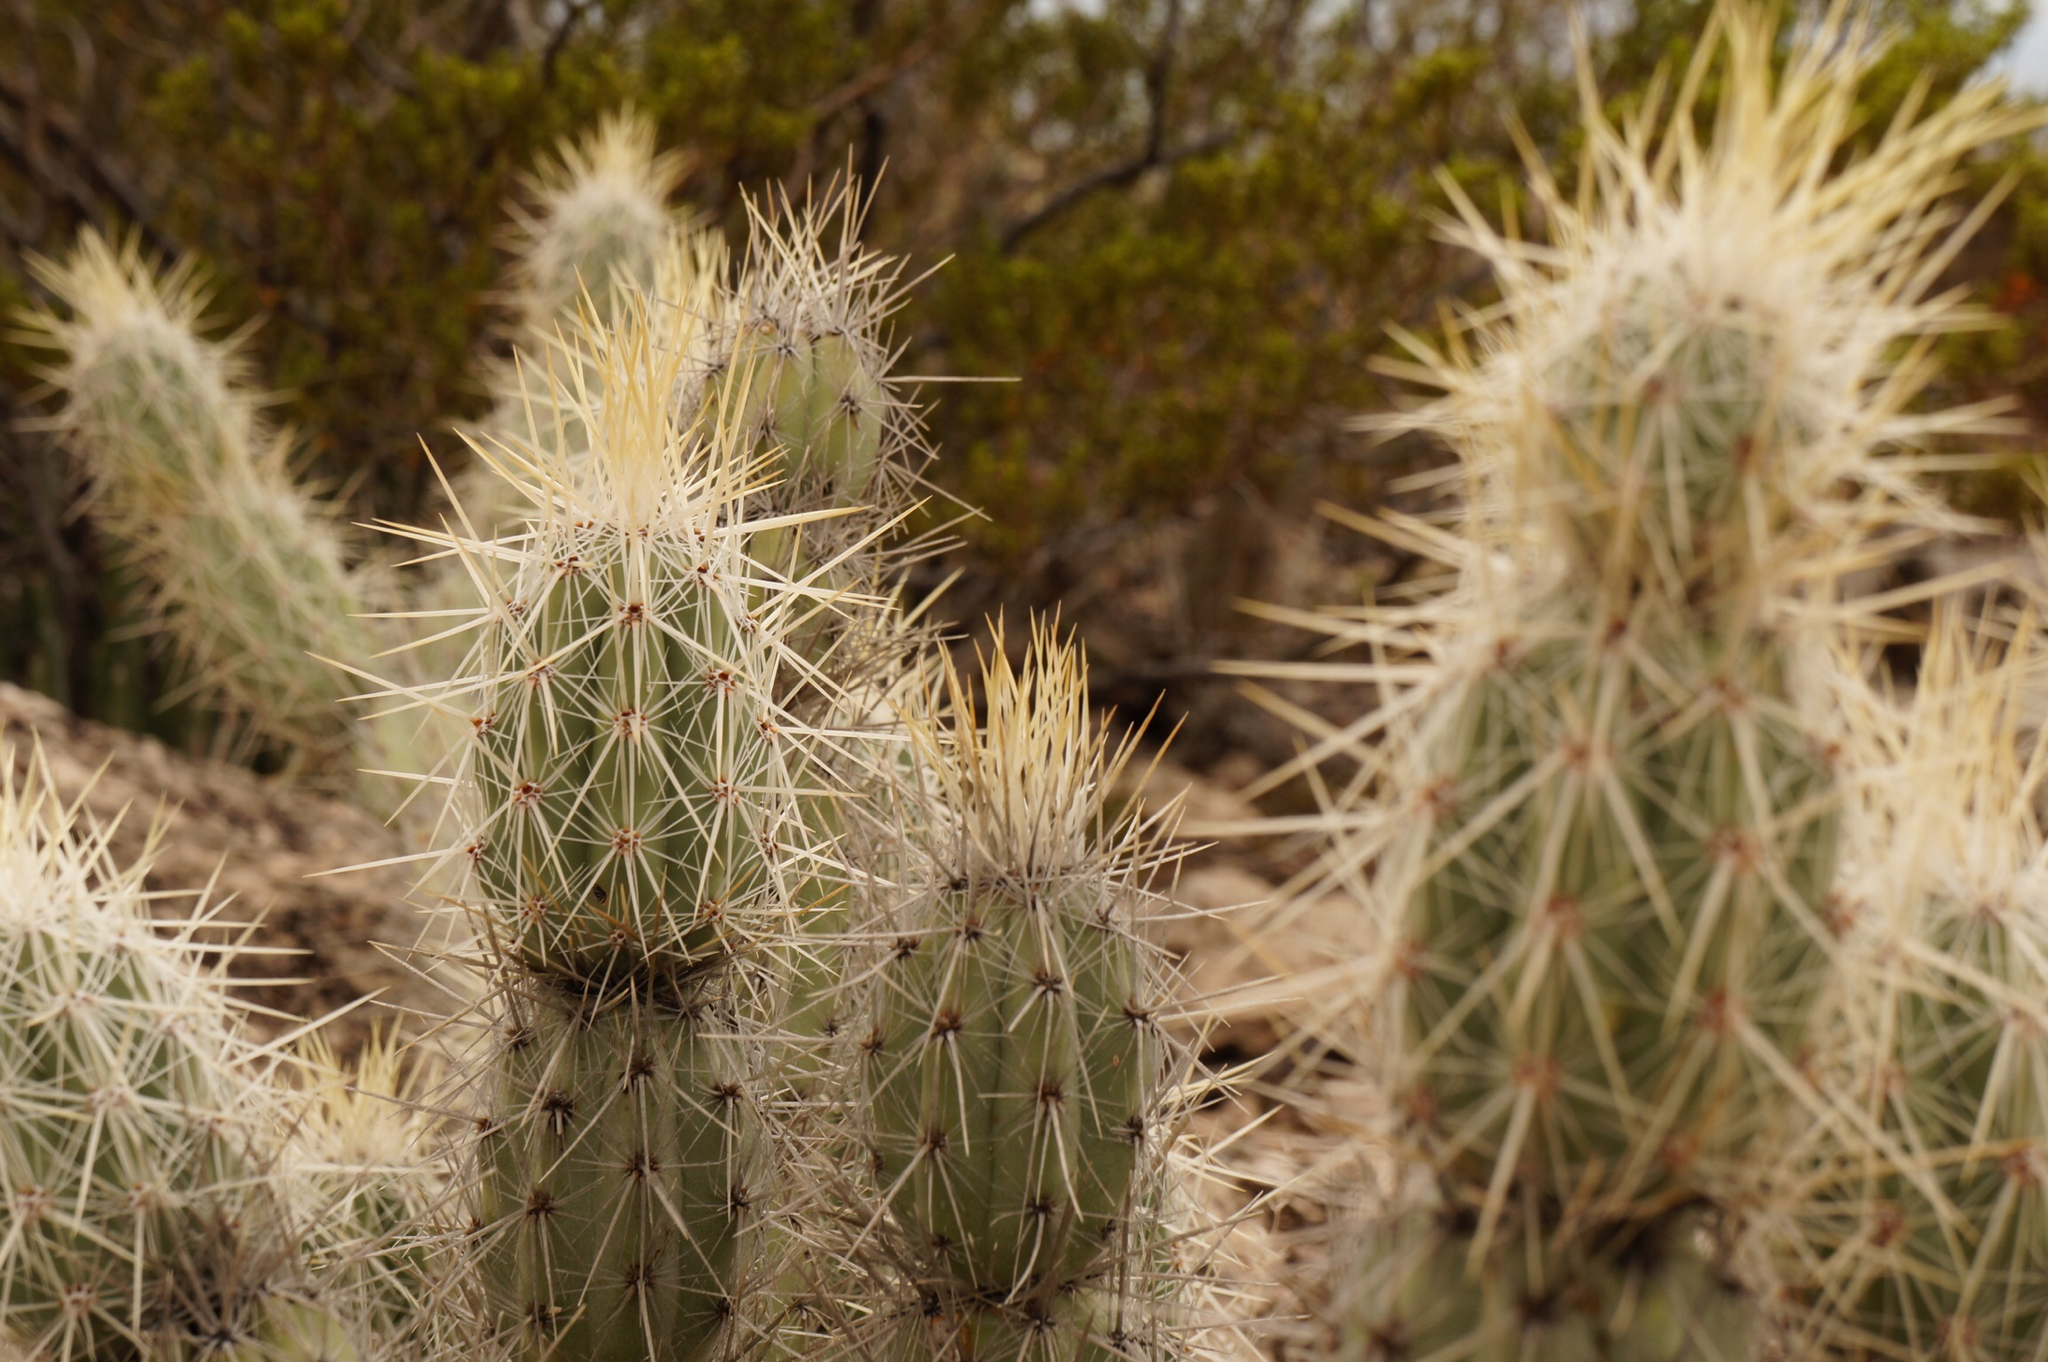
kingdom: Plantae
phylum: Tracheophyta
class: Magnoliopsida
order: Caryophyllales
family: Cactaceae
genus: Grusonia
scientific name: Grusonia bradtiana
